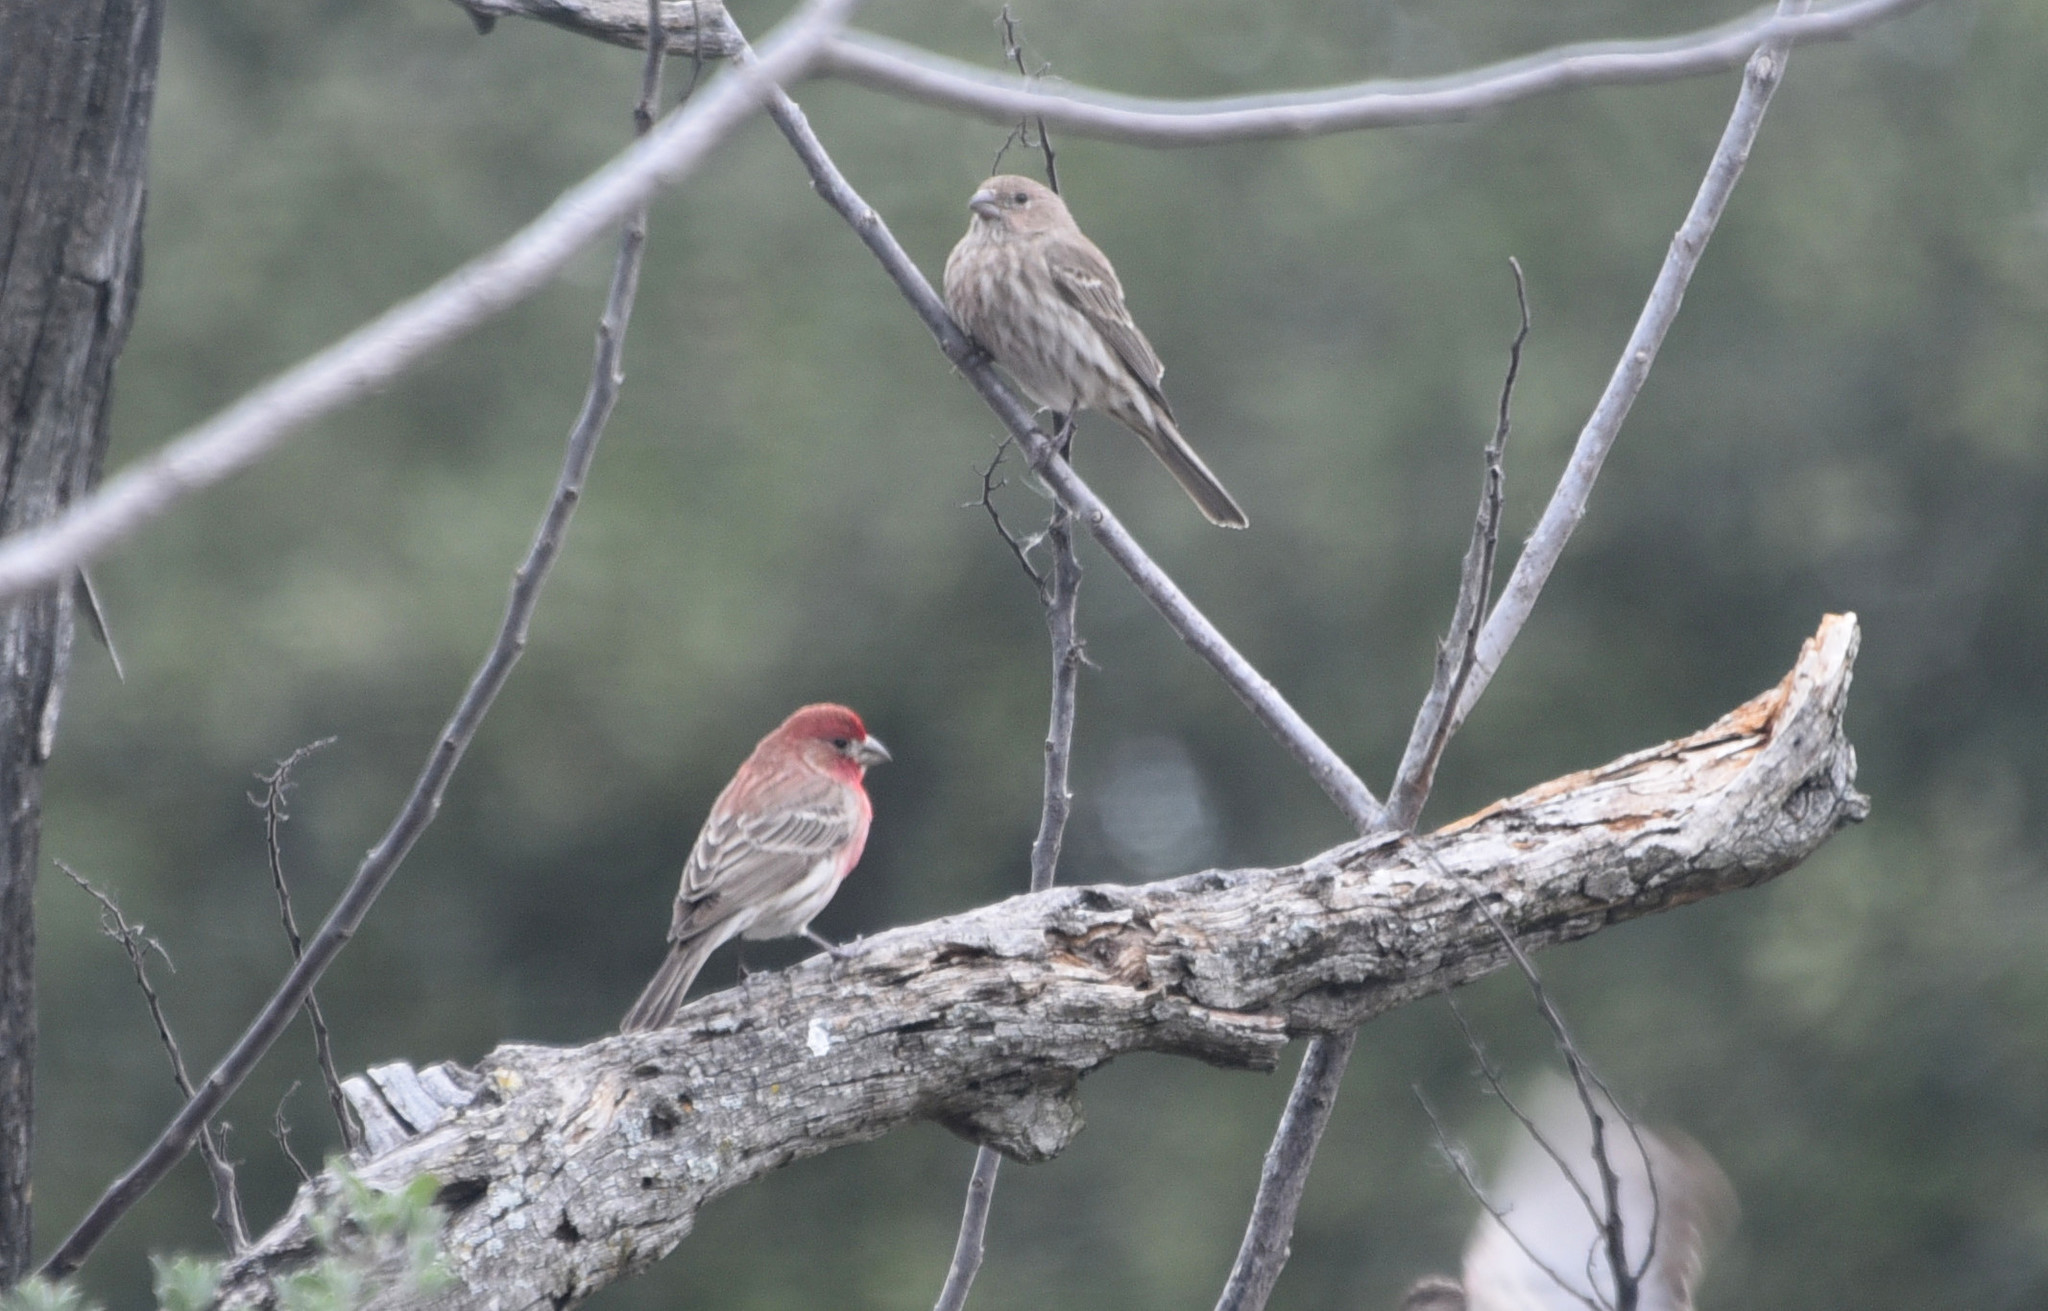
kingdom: Animalia
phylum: Chordata
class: Aves
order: Passeriformes
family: Fringillidae
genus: Haemorhous
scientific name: Haemorhous mexicanus
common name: House finch
